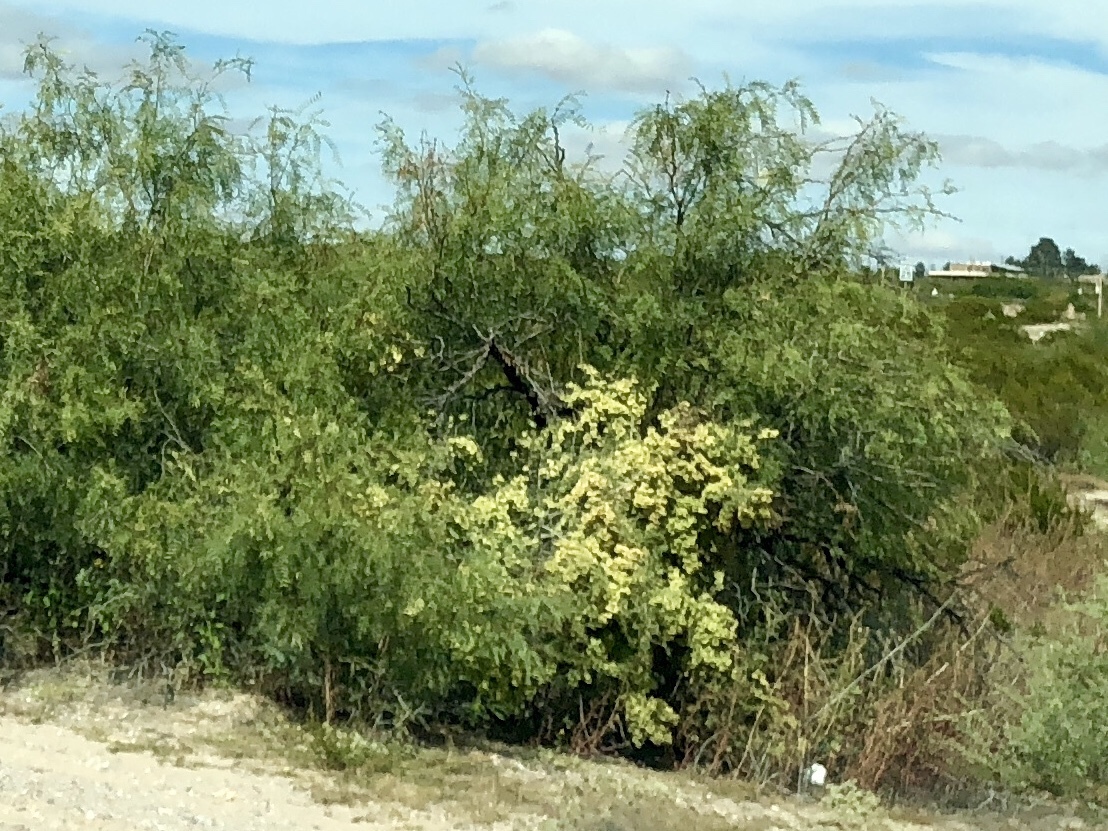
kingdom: Plantae
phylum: Tracheophyta
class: Magnoliopsida
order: Caryophyllales
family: Amaranthaceae
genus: Atriplex
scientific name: Atriplex canescens
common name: Four-wing saltbush
